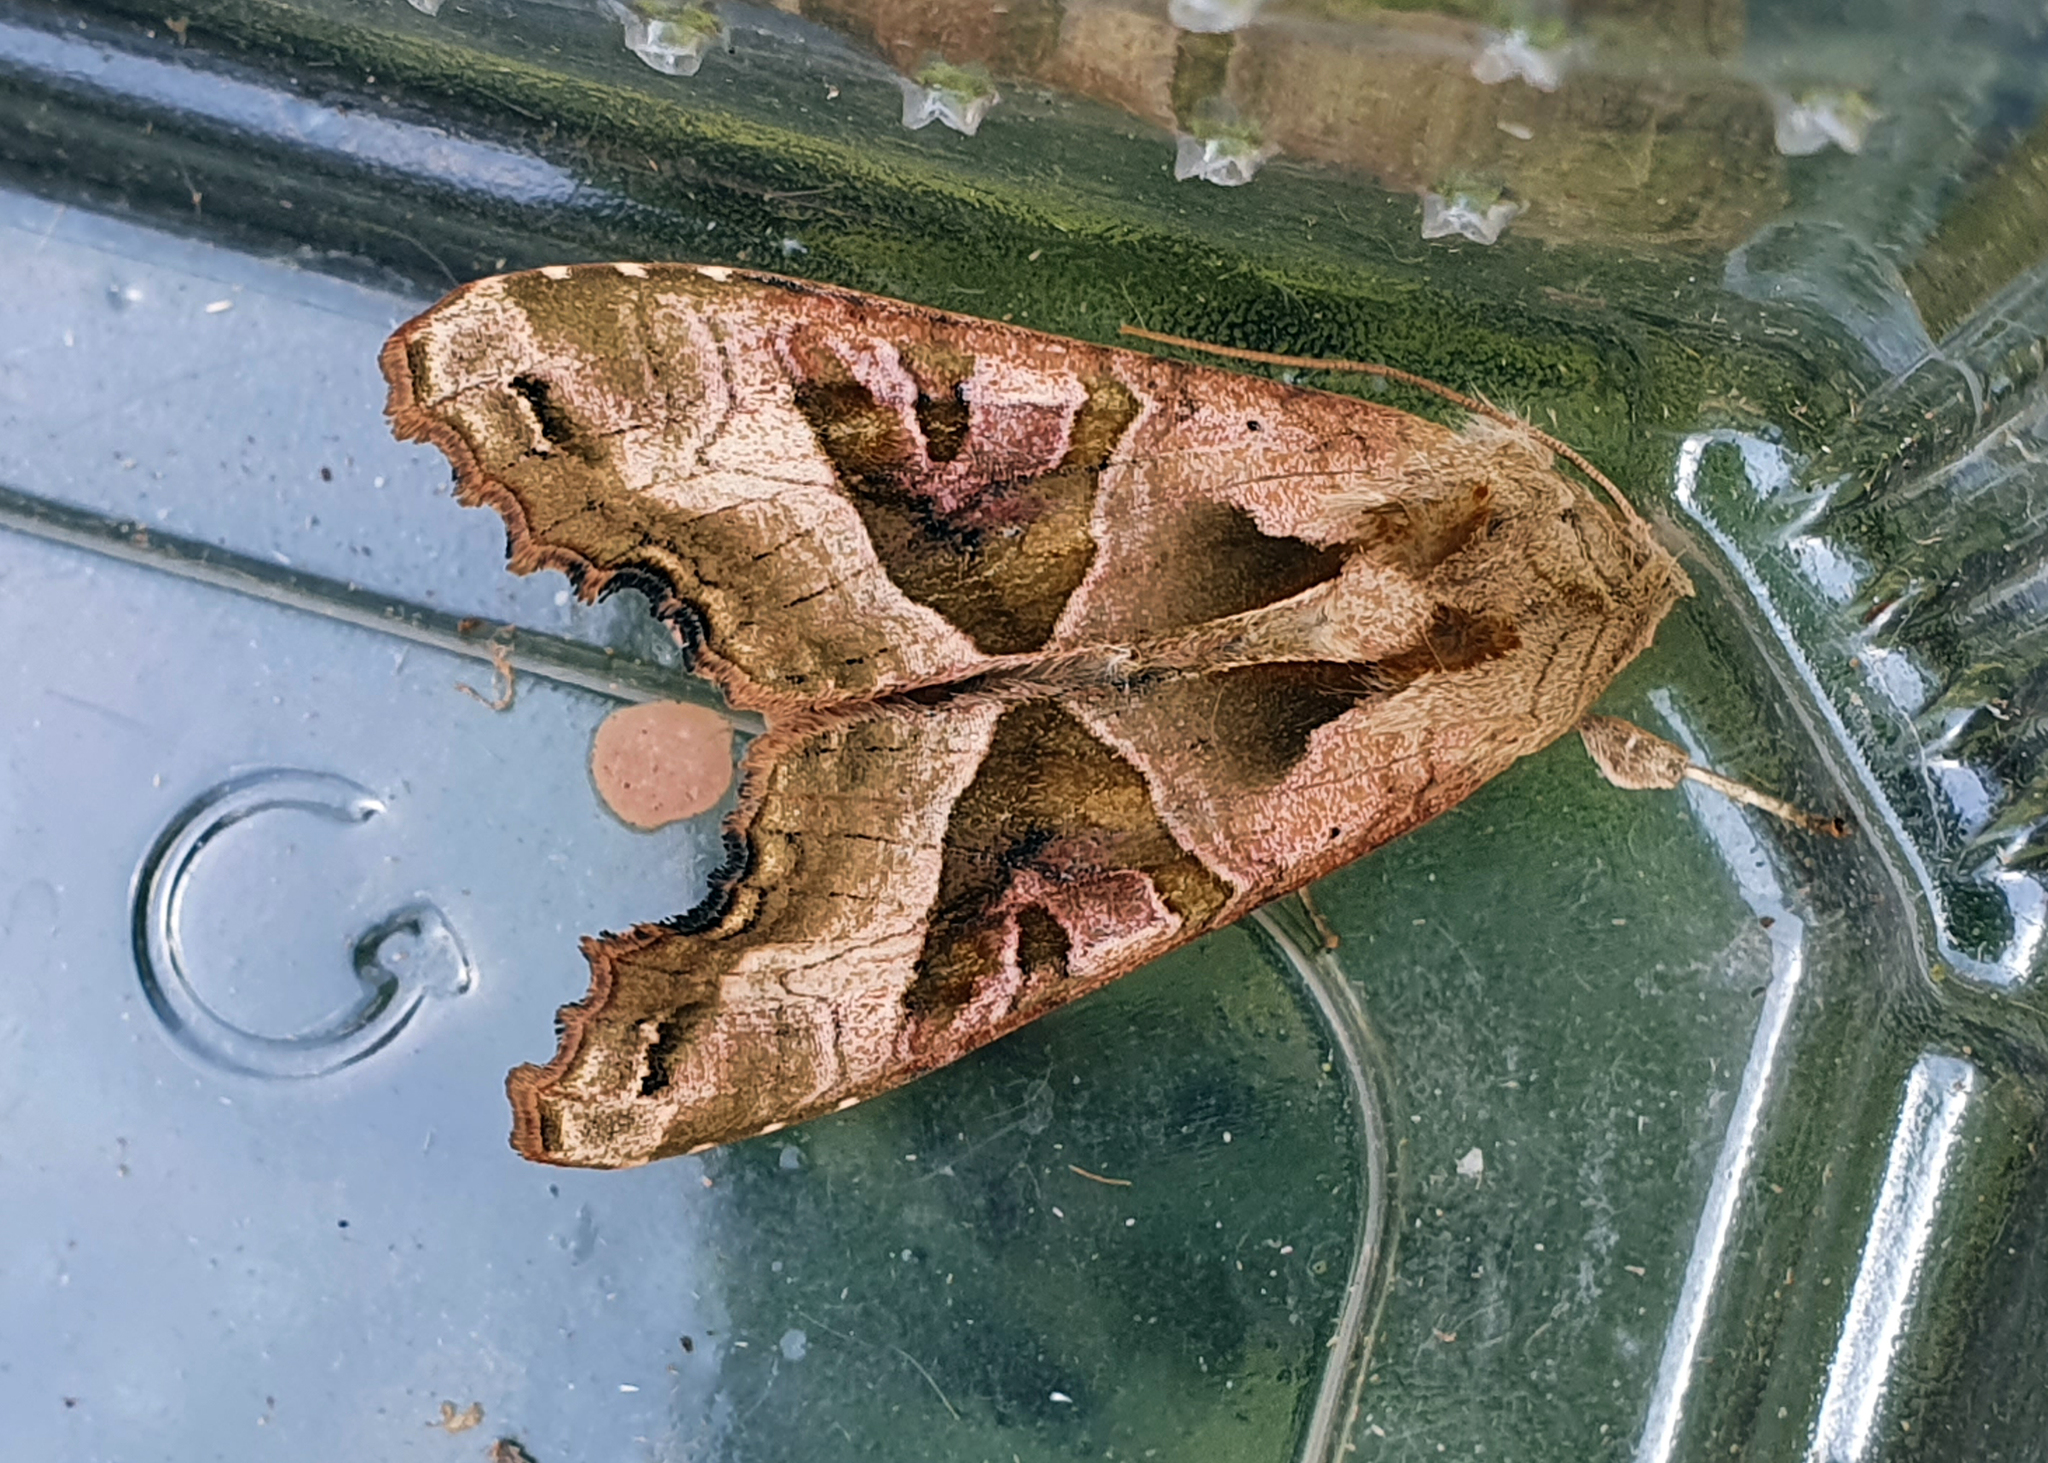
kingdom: Animalia
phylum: Arthropoda
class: Insecta
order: Lepidoptera
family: Noctuidae
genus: Phlogophora
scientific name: Phlogophora meticulosa
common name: Angle shades
